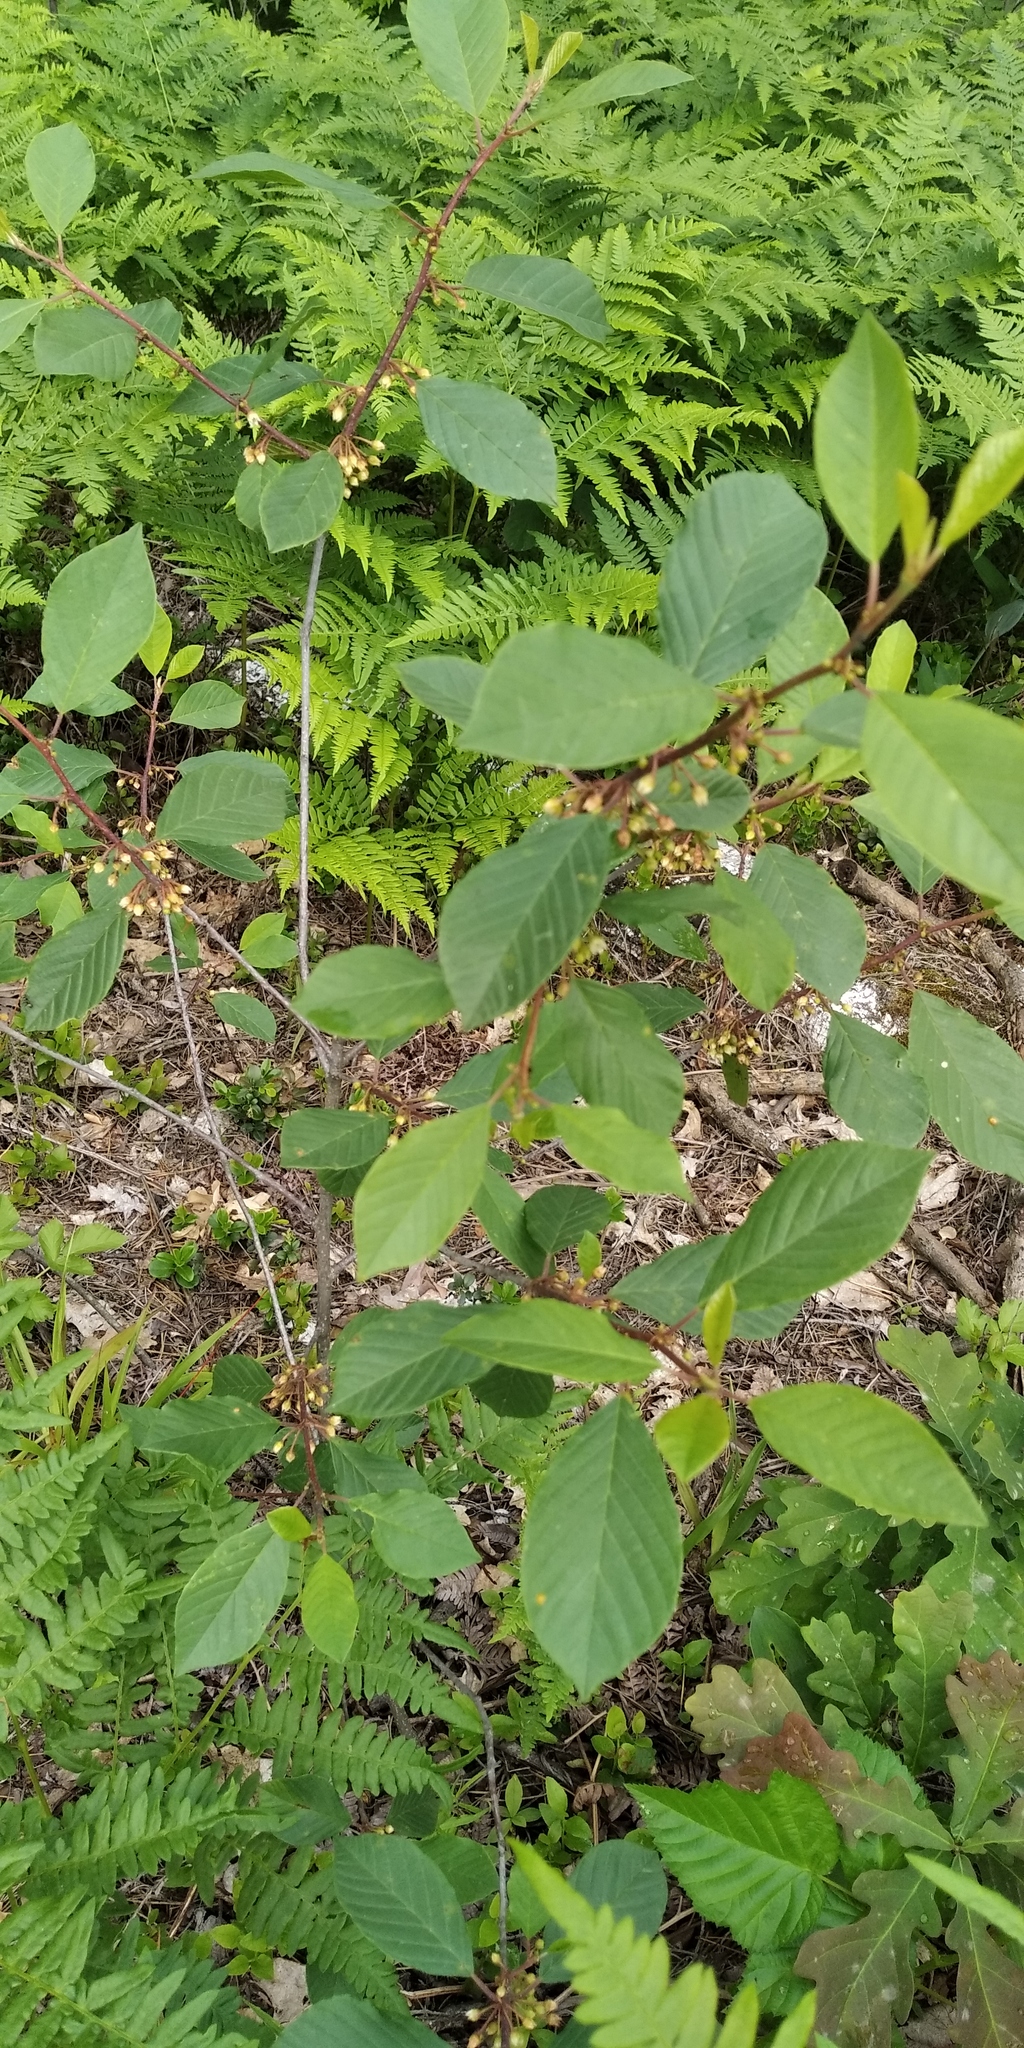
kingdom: Plantae
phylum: Tracheophyta
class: Magnoliopsida
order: Rosales
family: Rhamnaceae
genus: Frangula
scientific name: Frangula alnus
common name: Alder buckthorn
